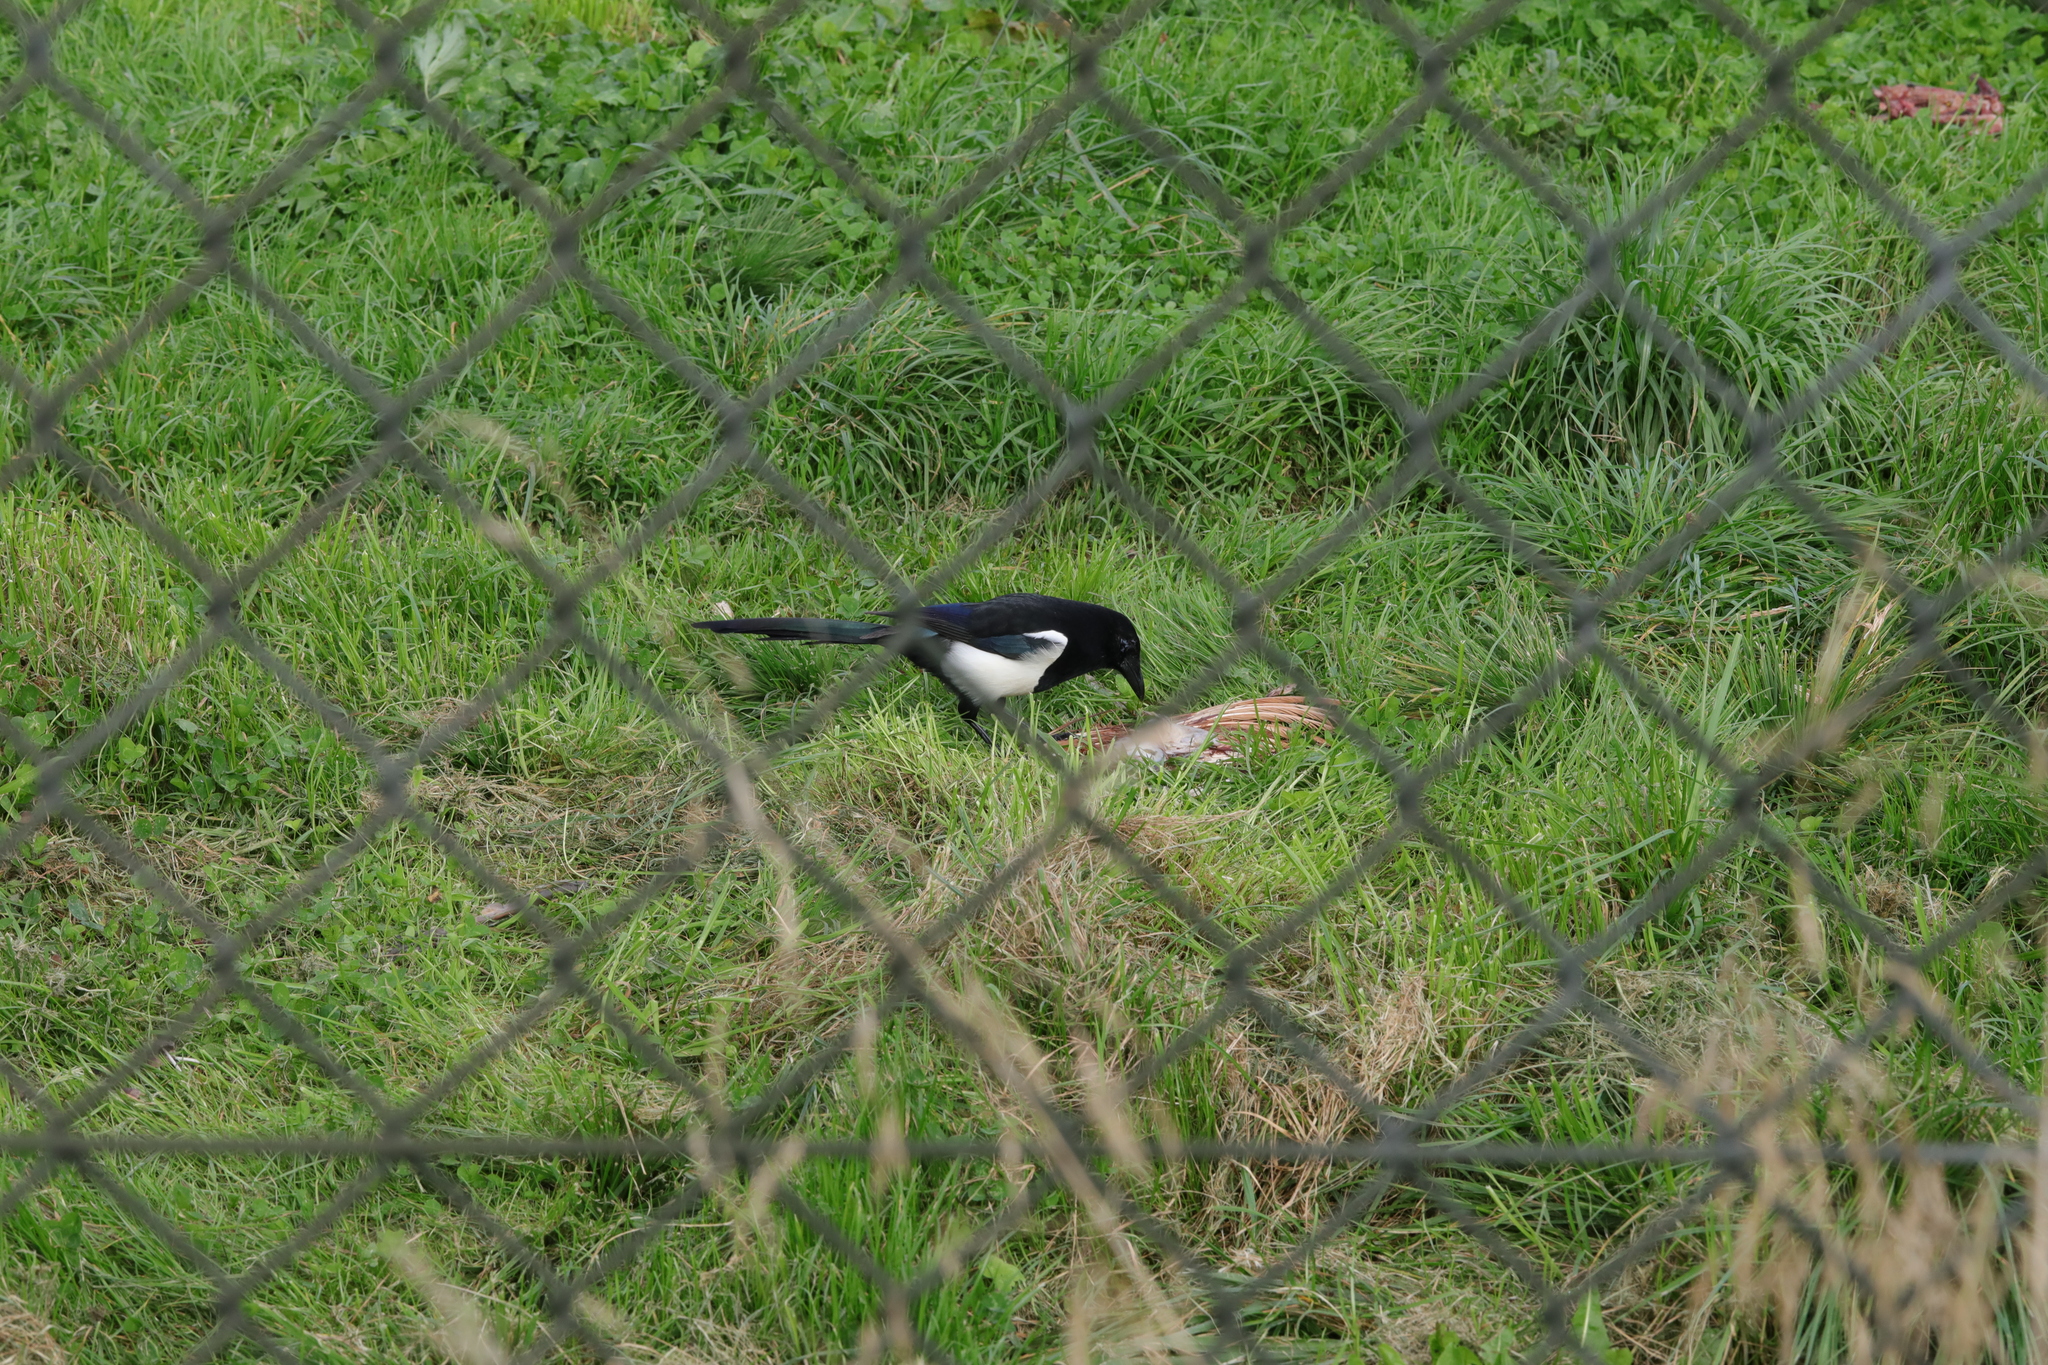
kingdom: Animalia
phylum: Chordata
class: Aves
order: Passeriformes
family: Corvidae
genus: Pica
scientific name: Pica pica
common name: Eurasian magpie
